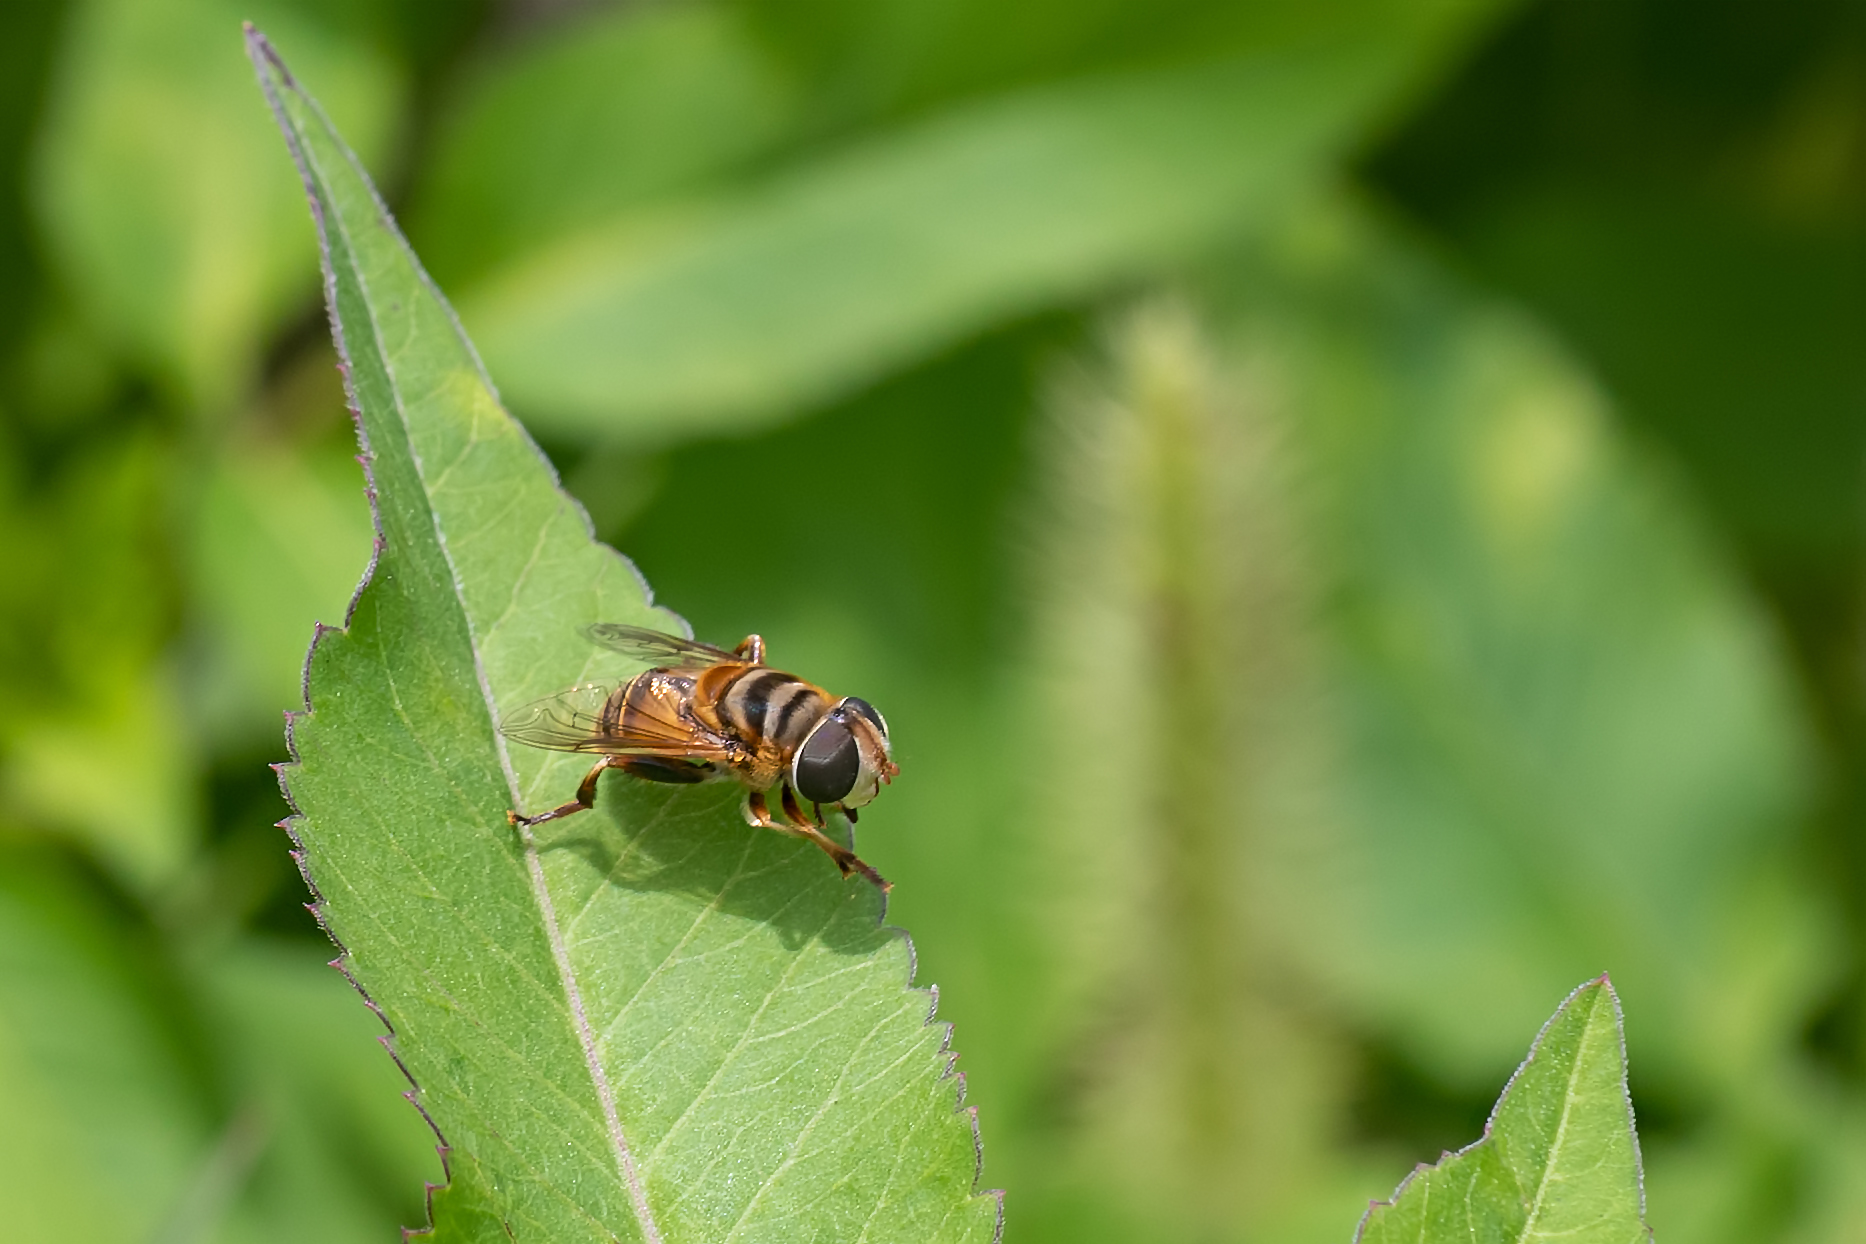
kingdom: Animalia
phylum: Arthropoda
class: Insecta
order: Diptera
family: Syrphidae
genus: Palpada
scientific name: Palpada vinetorum
